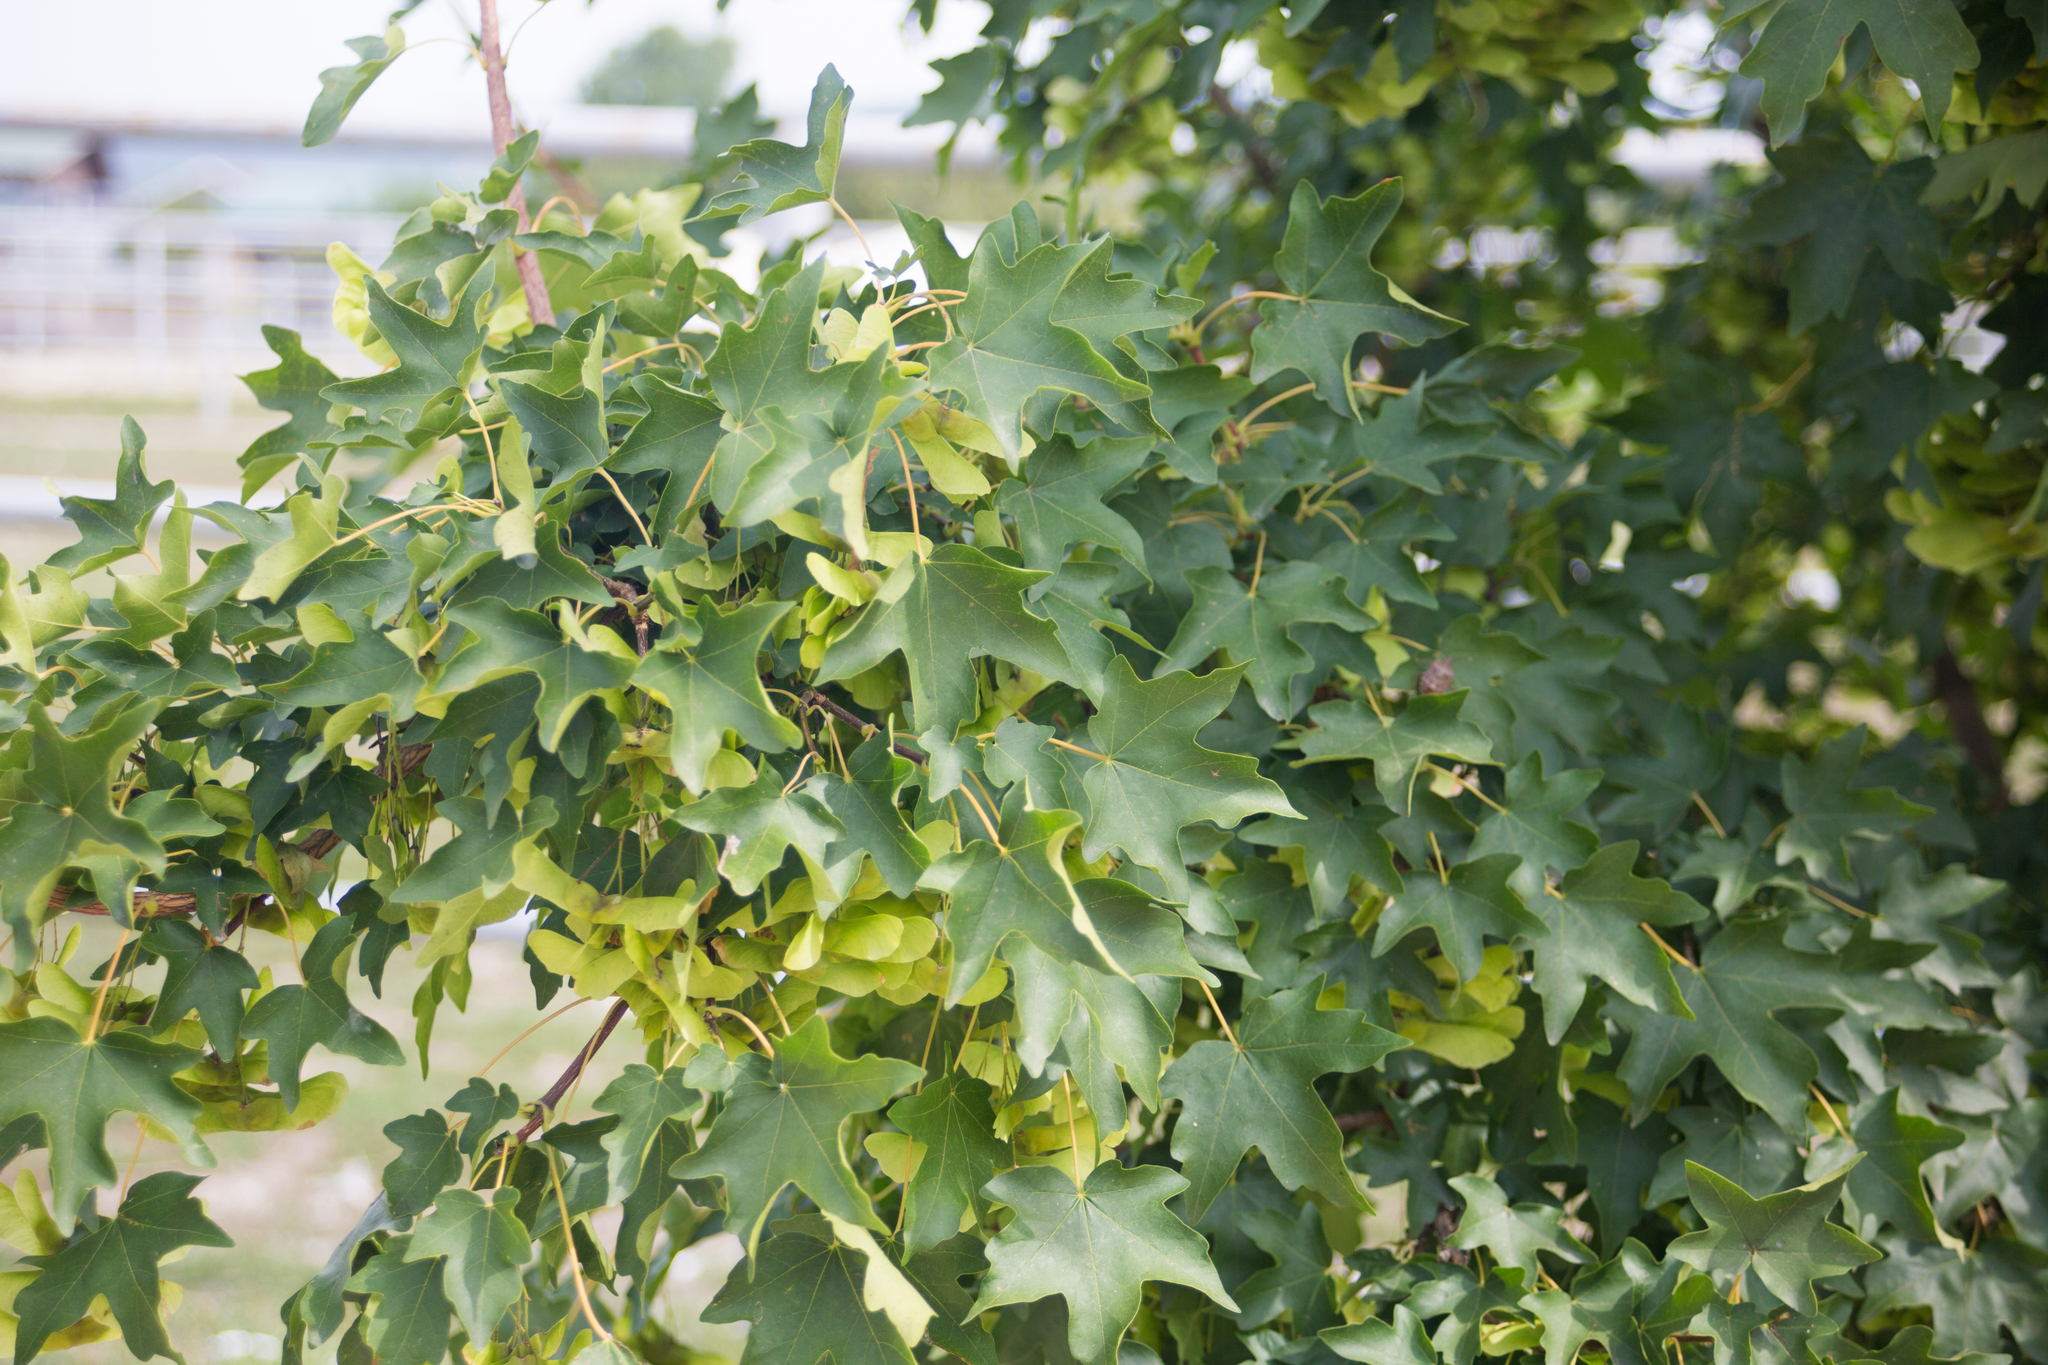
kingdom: Plantae
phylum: Tracheophyta
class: Magnoliopsida
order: Sapindales
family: Sapindaceae
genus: Acer
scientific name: Acer campestre
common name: Field maple
